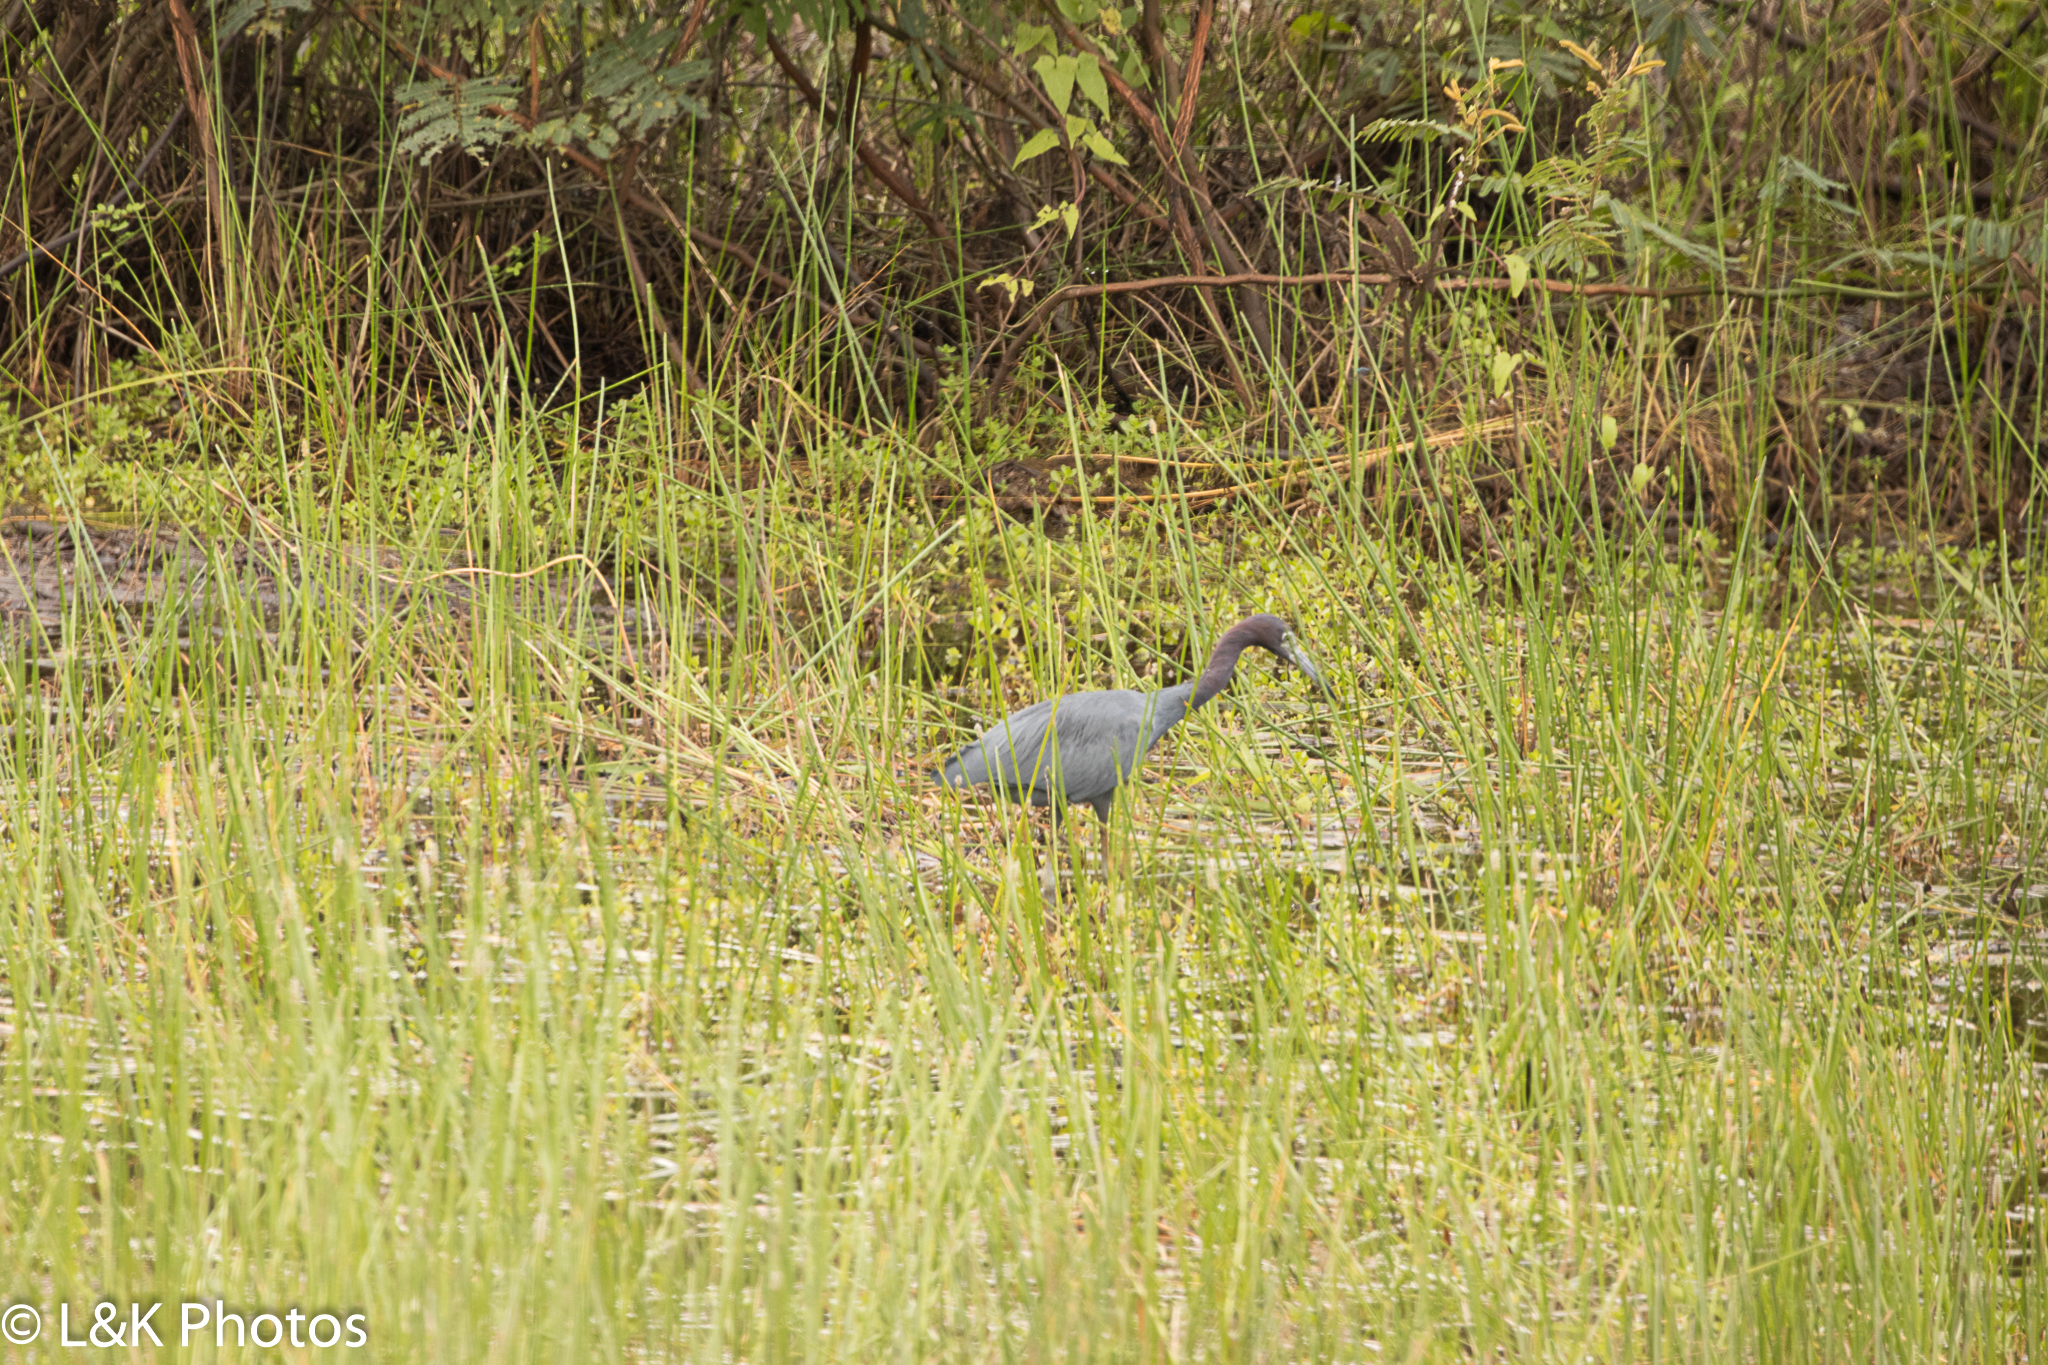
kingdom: Animalia
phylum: Chordata
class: Aves
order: Pelecaniformes
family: Ardeidae
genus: Egretta
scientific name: Egretta caerulea
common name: Little blue heron
